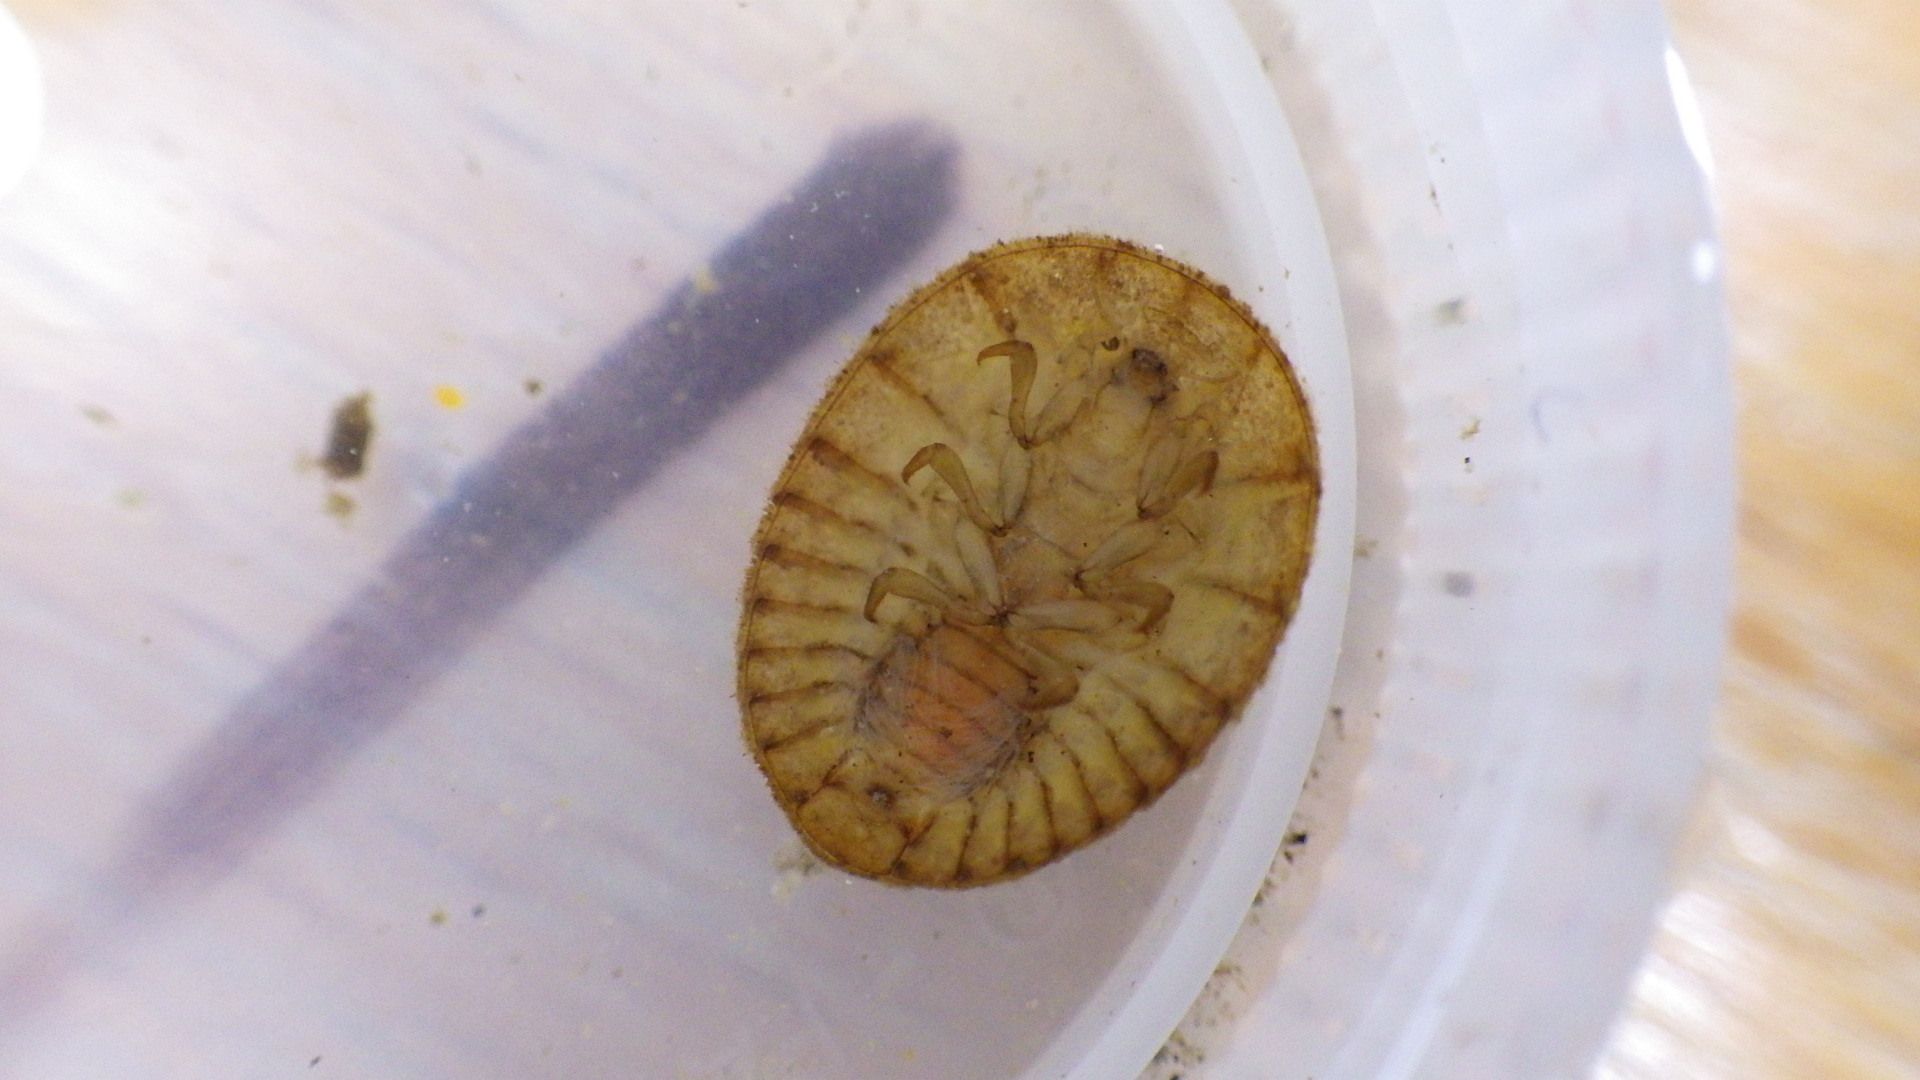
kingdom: Animalia
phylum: Arthropoda
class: Insecta
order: Coleoptera
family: Psephenidae
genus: Psephenus
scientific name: Psephenus herricki
